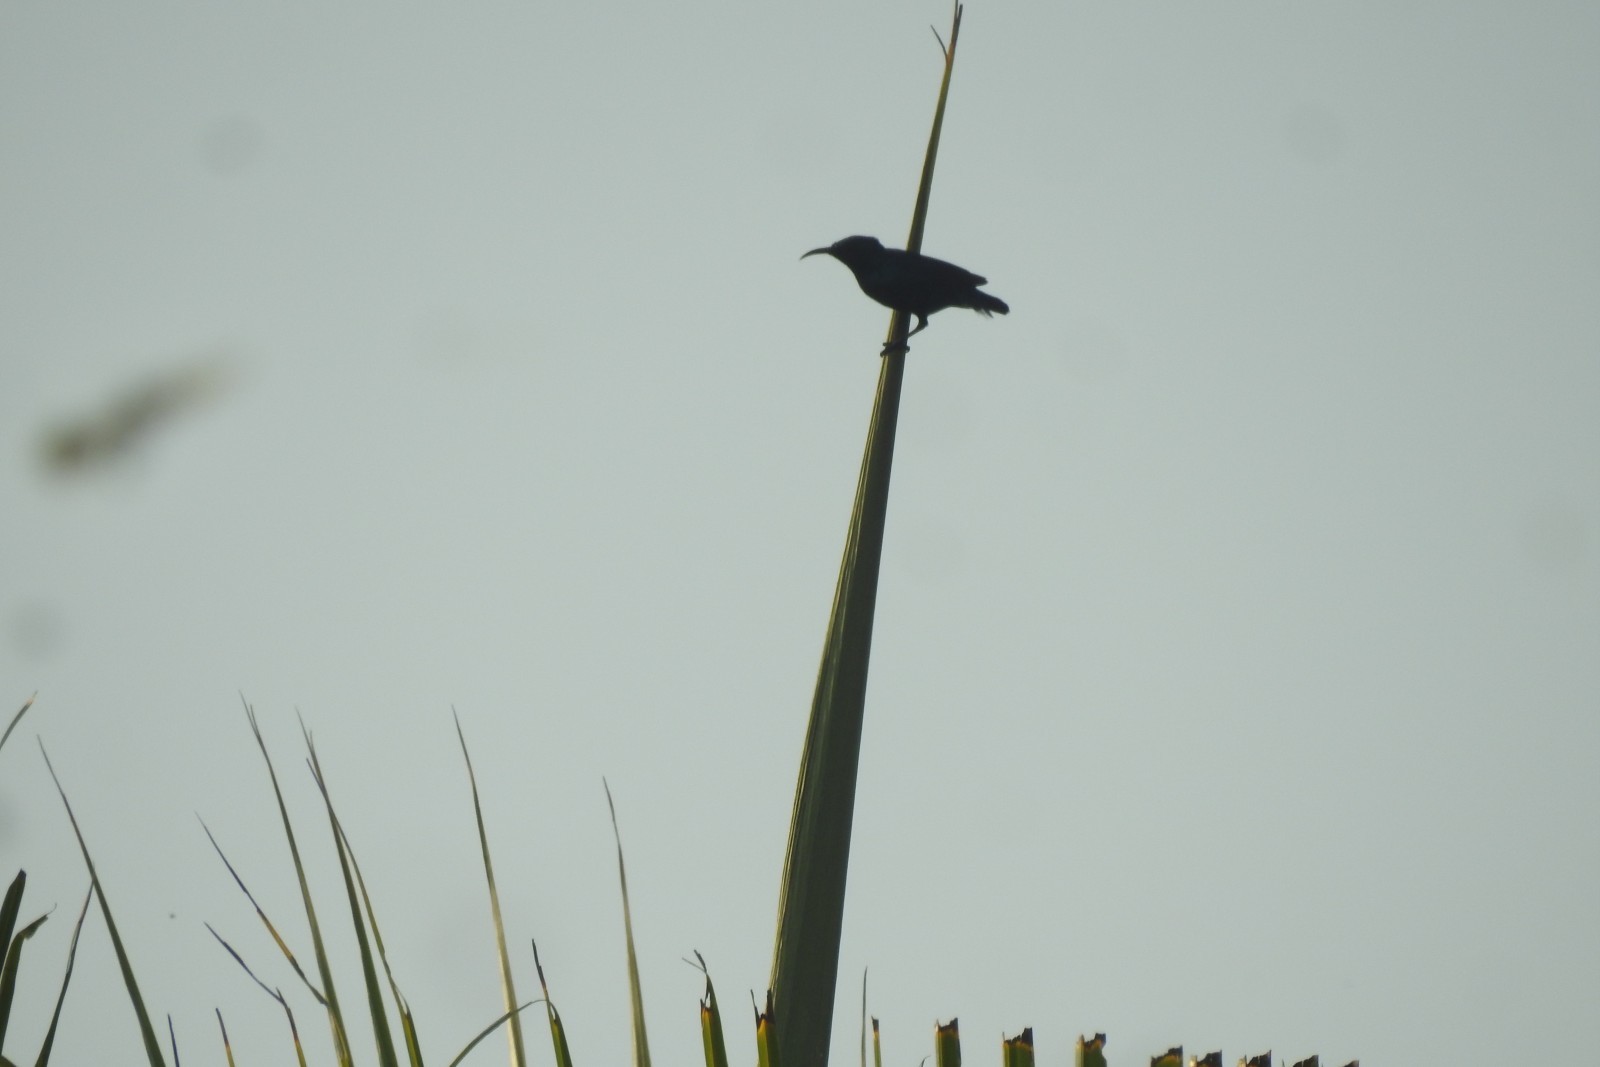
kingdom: Animalia
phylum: Chordata
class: Aves
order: Passeriformes
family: Nectariniidae
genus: Cinnyris
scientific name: Cinnyris asiaticus
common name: Purple sunbird
